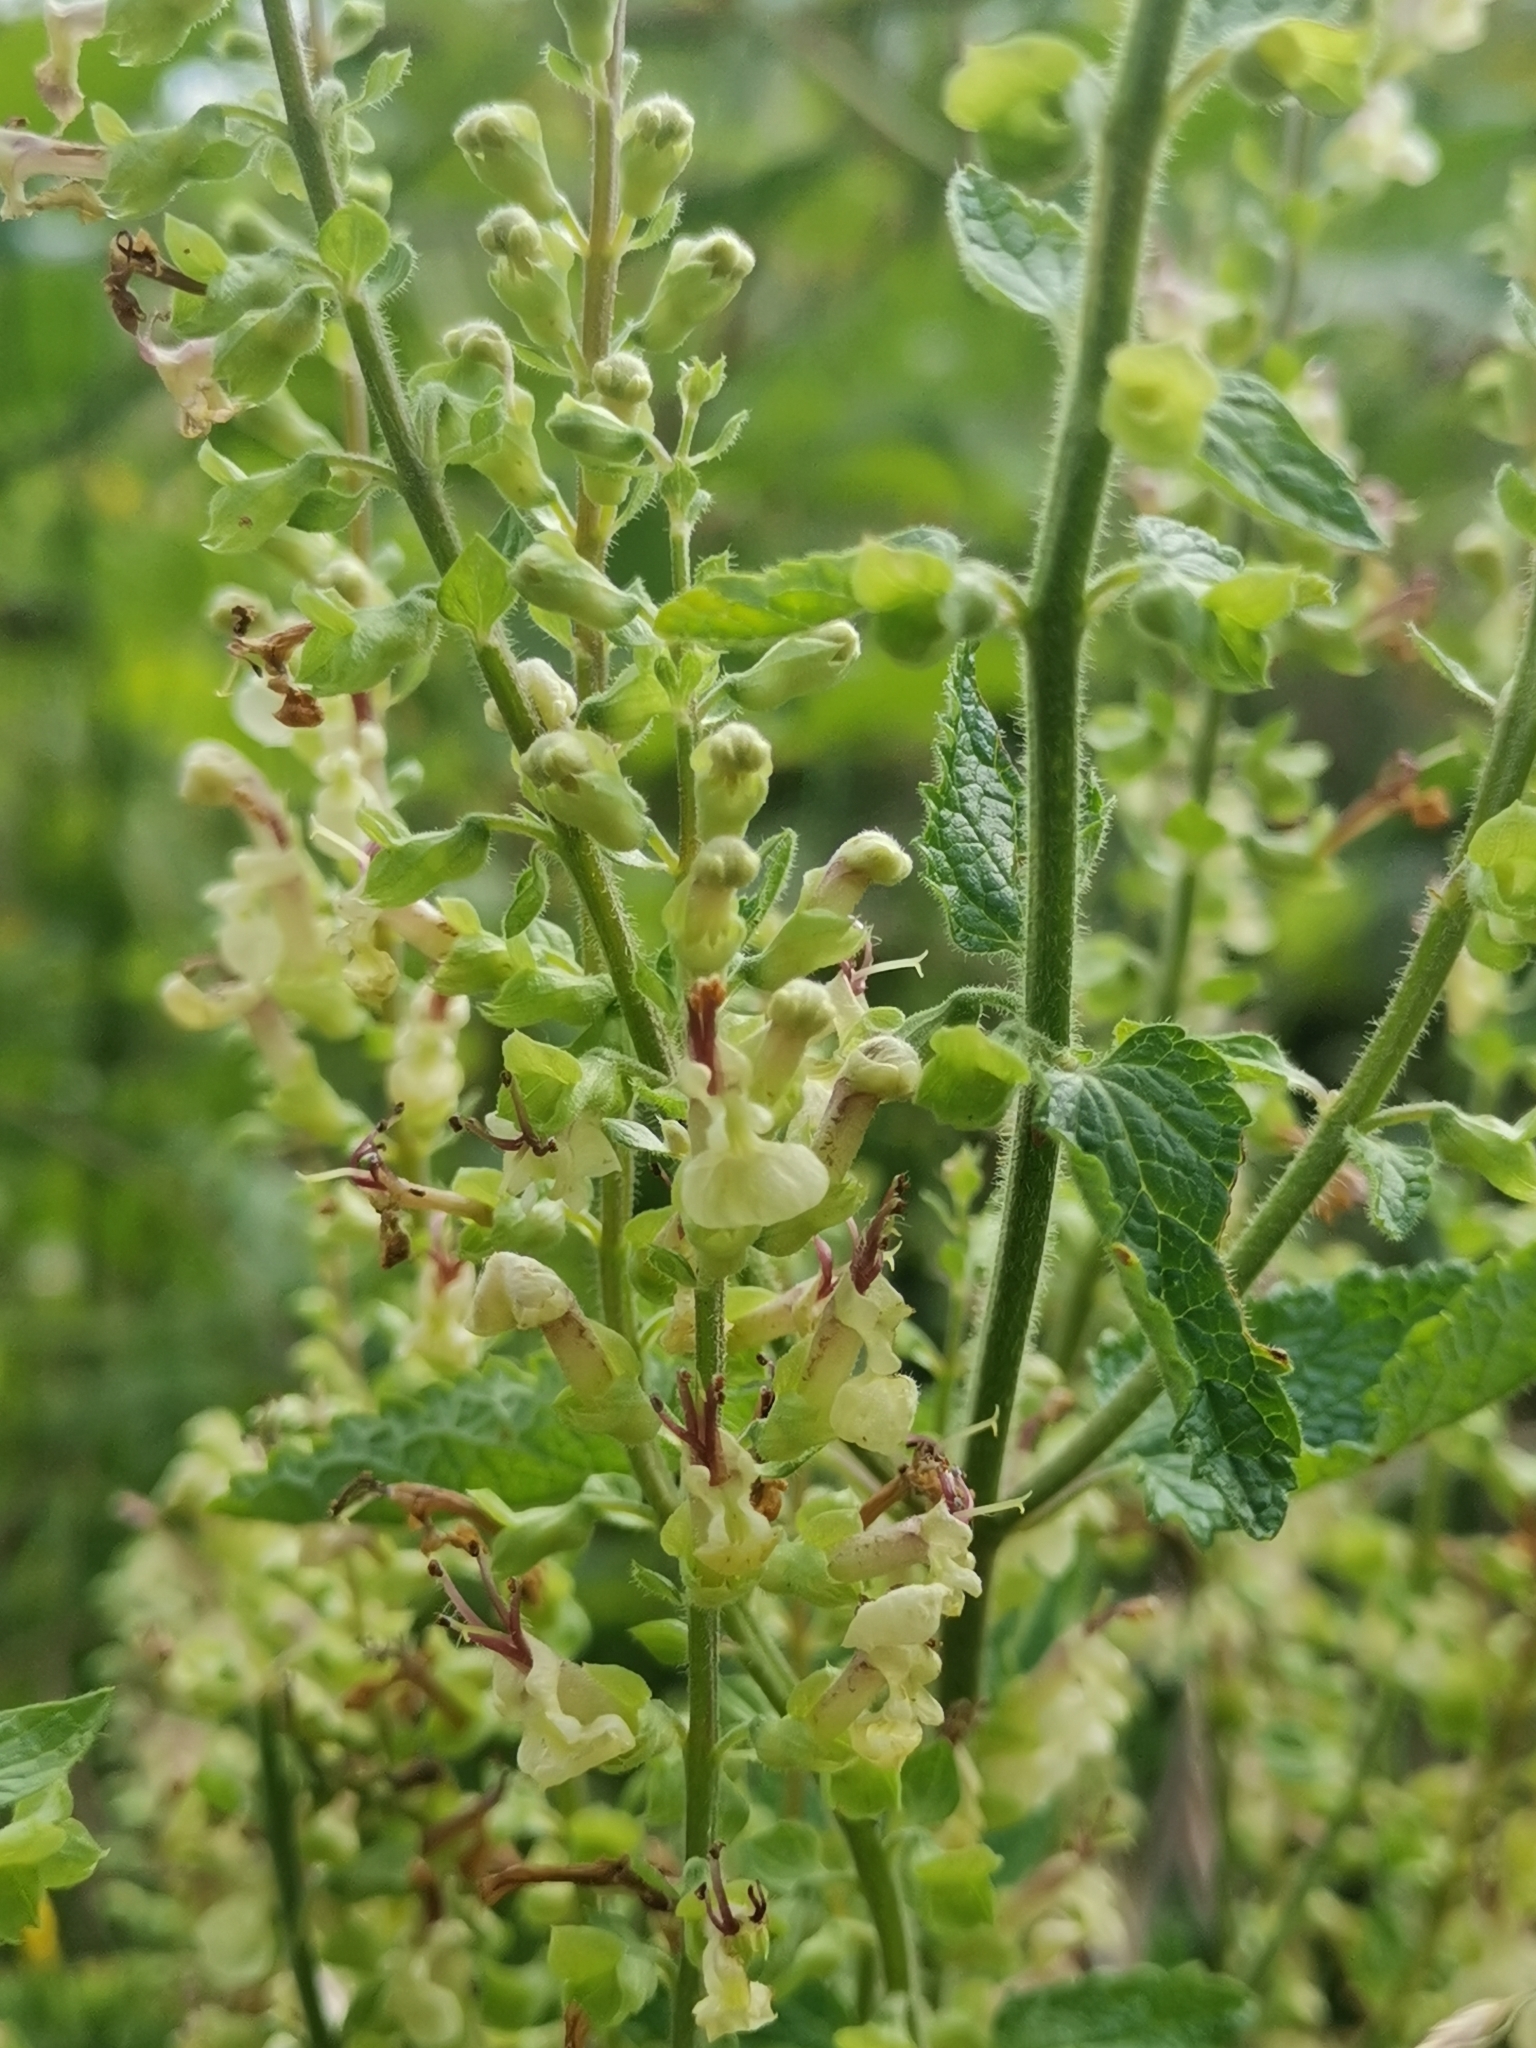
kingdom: Plantae
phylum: Tracheophyta
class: Magnoliopsida
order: Lamiales
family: Lamiaceae
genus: Teucrium
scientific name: Teucrium scorodonia
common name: Woodland germander
